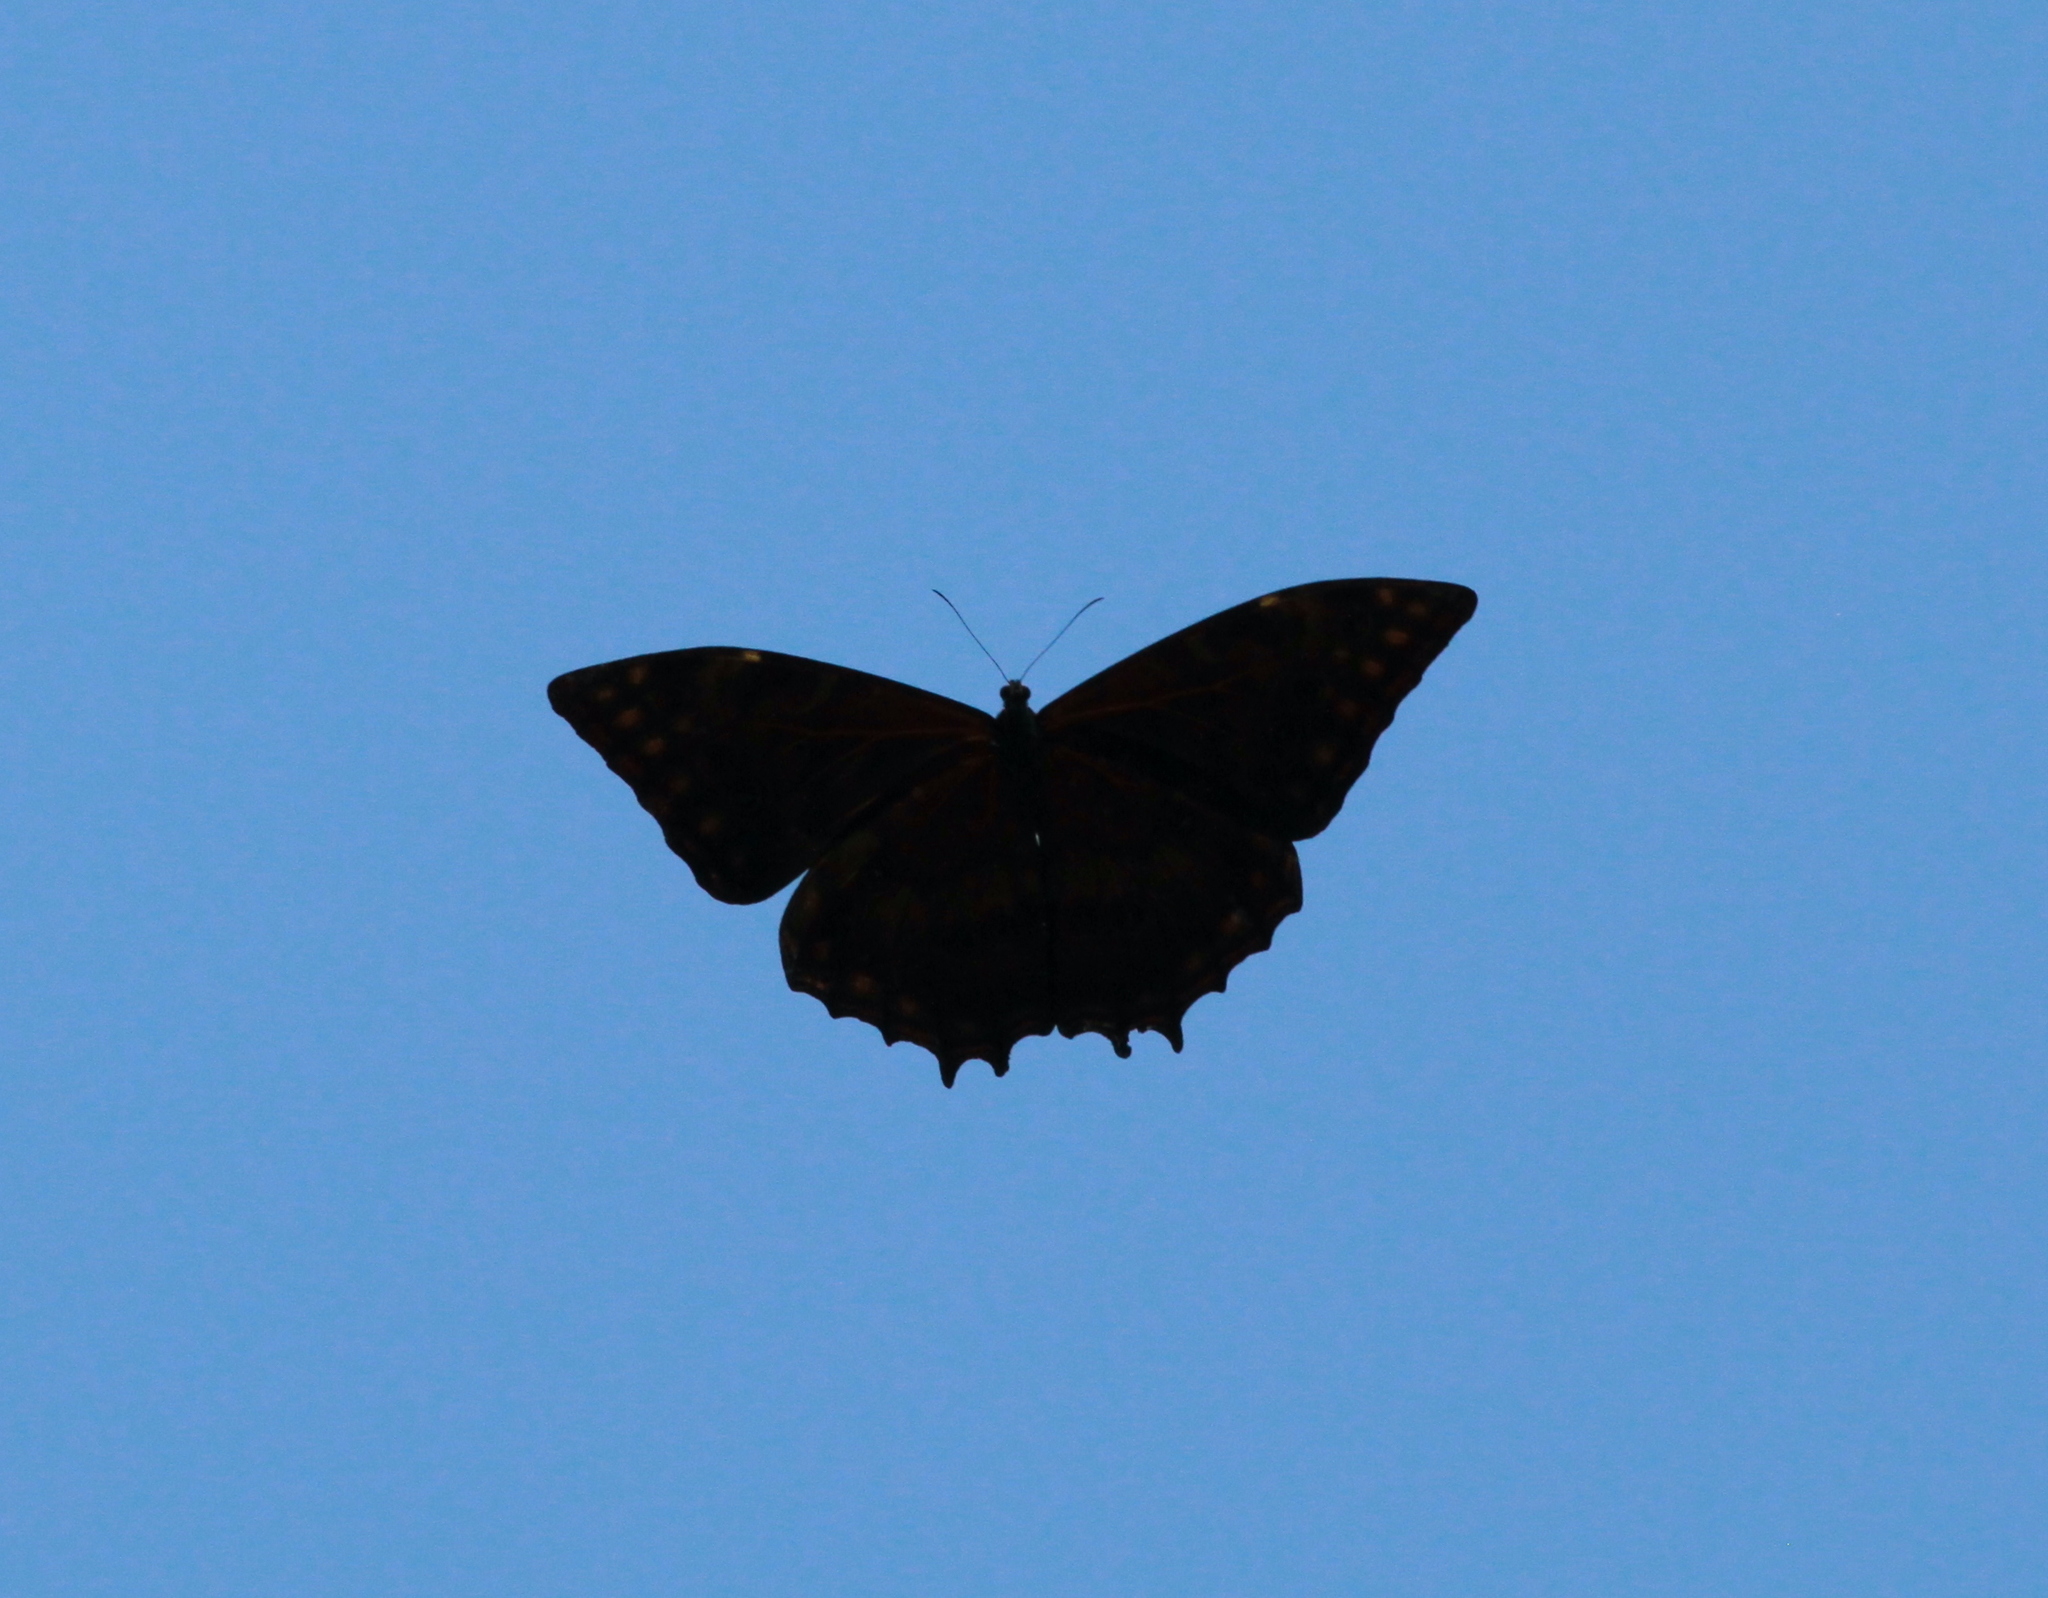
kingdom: Animalia
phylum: Arthropoda
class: Insecta
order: Lepidoptera
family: Nymphalidae
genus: Morpho
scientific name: Morpho theseus
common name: Stub-tailed morpho
